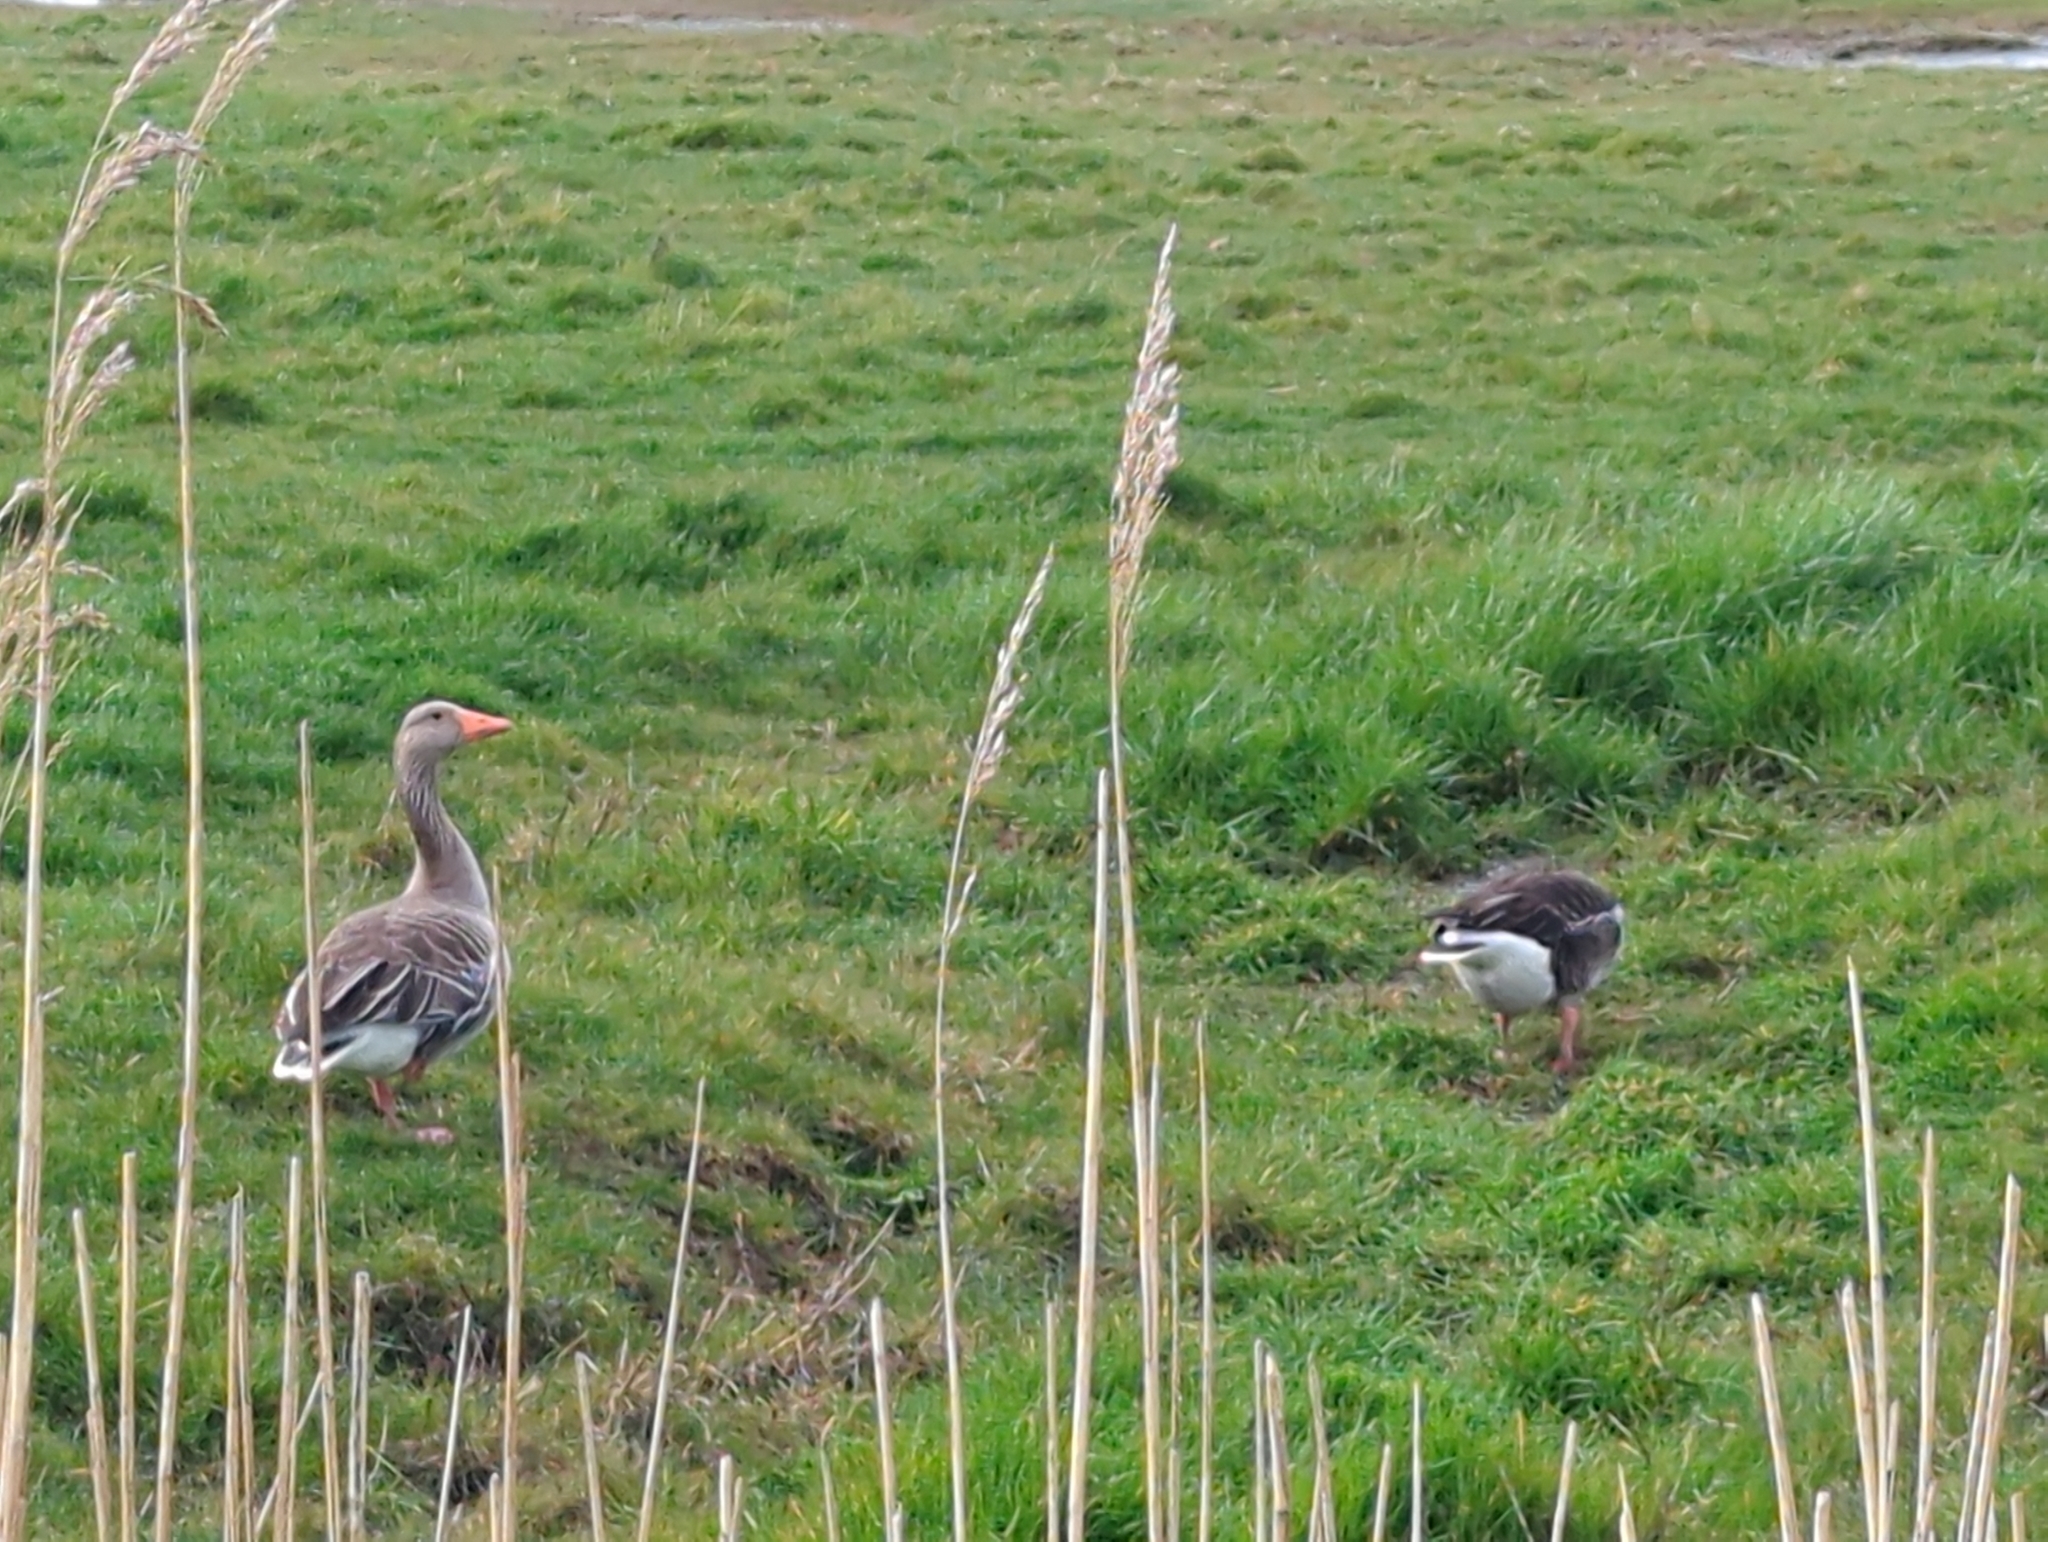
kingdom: Animalia
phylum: Chordata
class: Aves
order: Anseriformes
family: Anatidae
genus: Anser
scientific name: Anser anser
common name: Greylag goose
